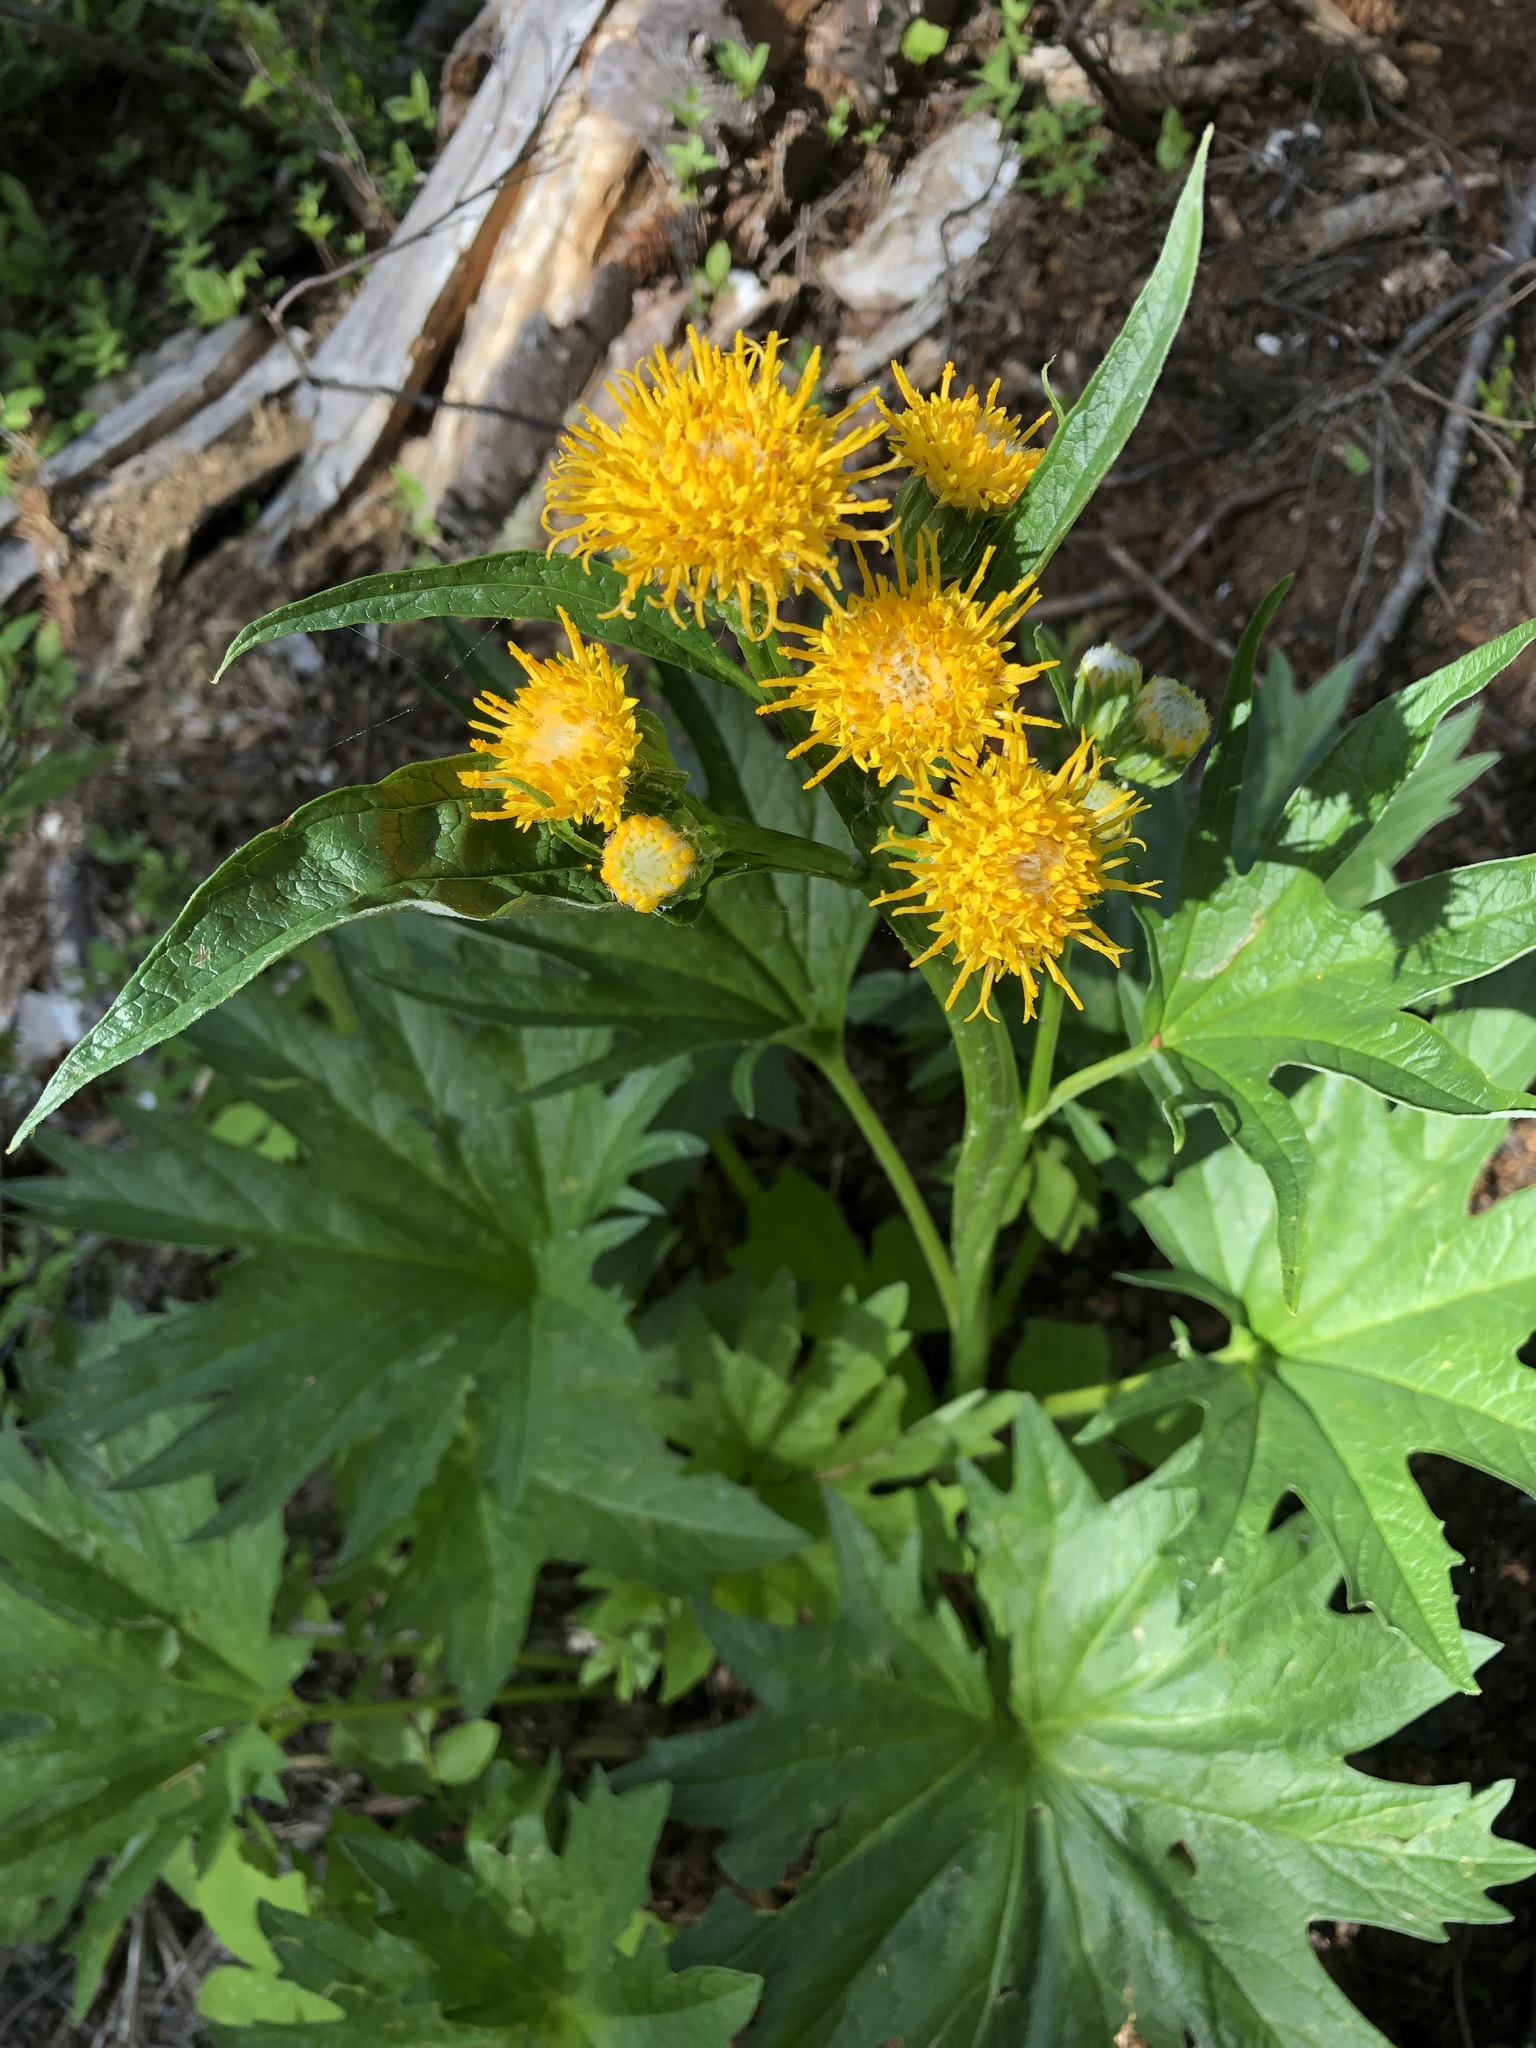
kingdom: Plantae
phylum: Tracheophyta
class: Magnoliopsida
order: Asterales
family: Asteraceae
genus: Cacaliopsis
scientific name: Cacaliopsis nardosmia
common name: Silvercrown
